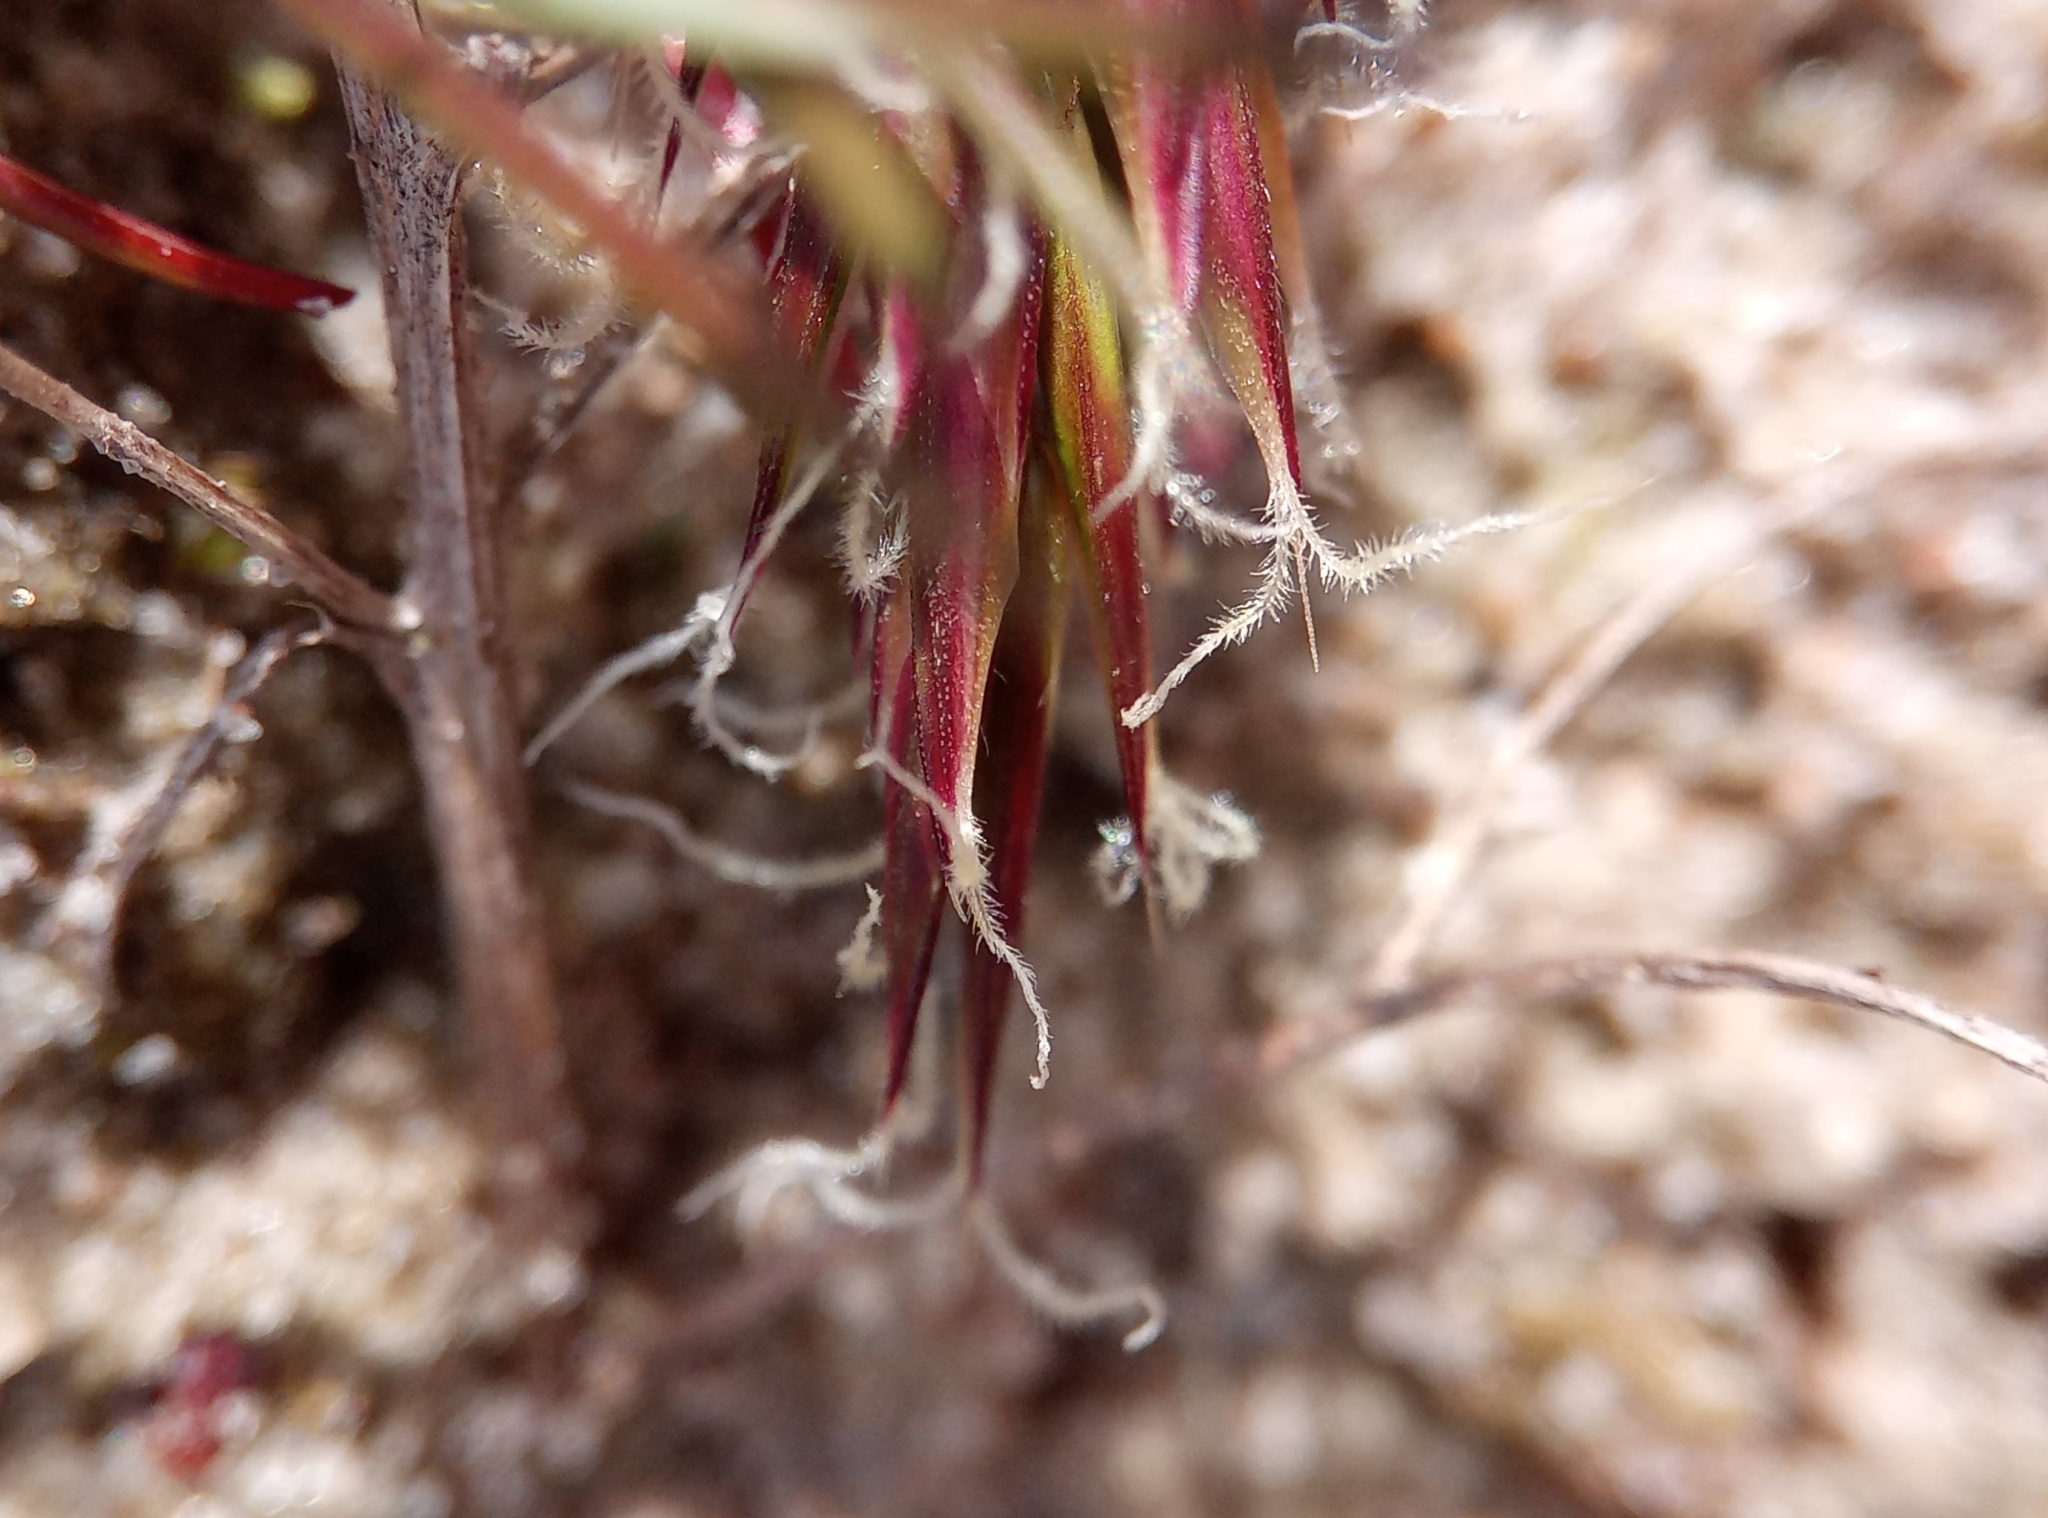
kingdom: Plantae
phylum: Tracheophyta
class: Liliopsida
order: Poales
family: Poaceae
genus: Anthoxanthum
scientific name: Anthoxanthum odoratum
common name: Sweet vernalgrass
